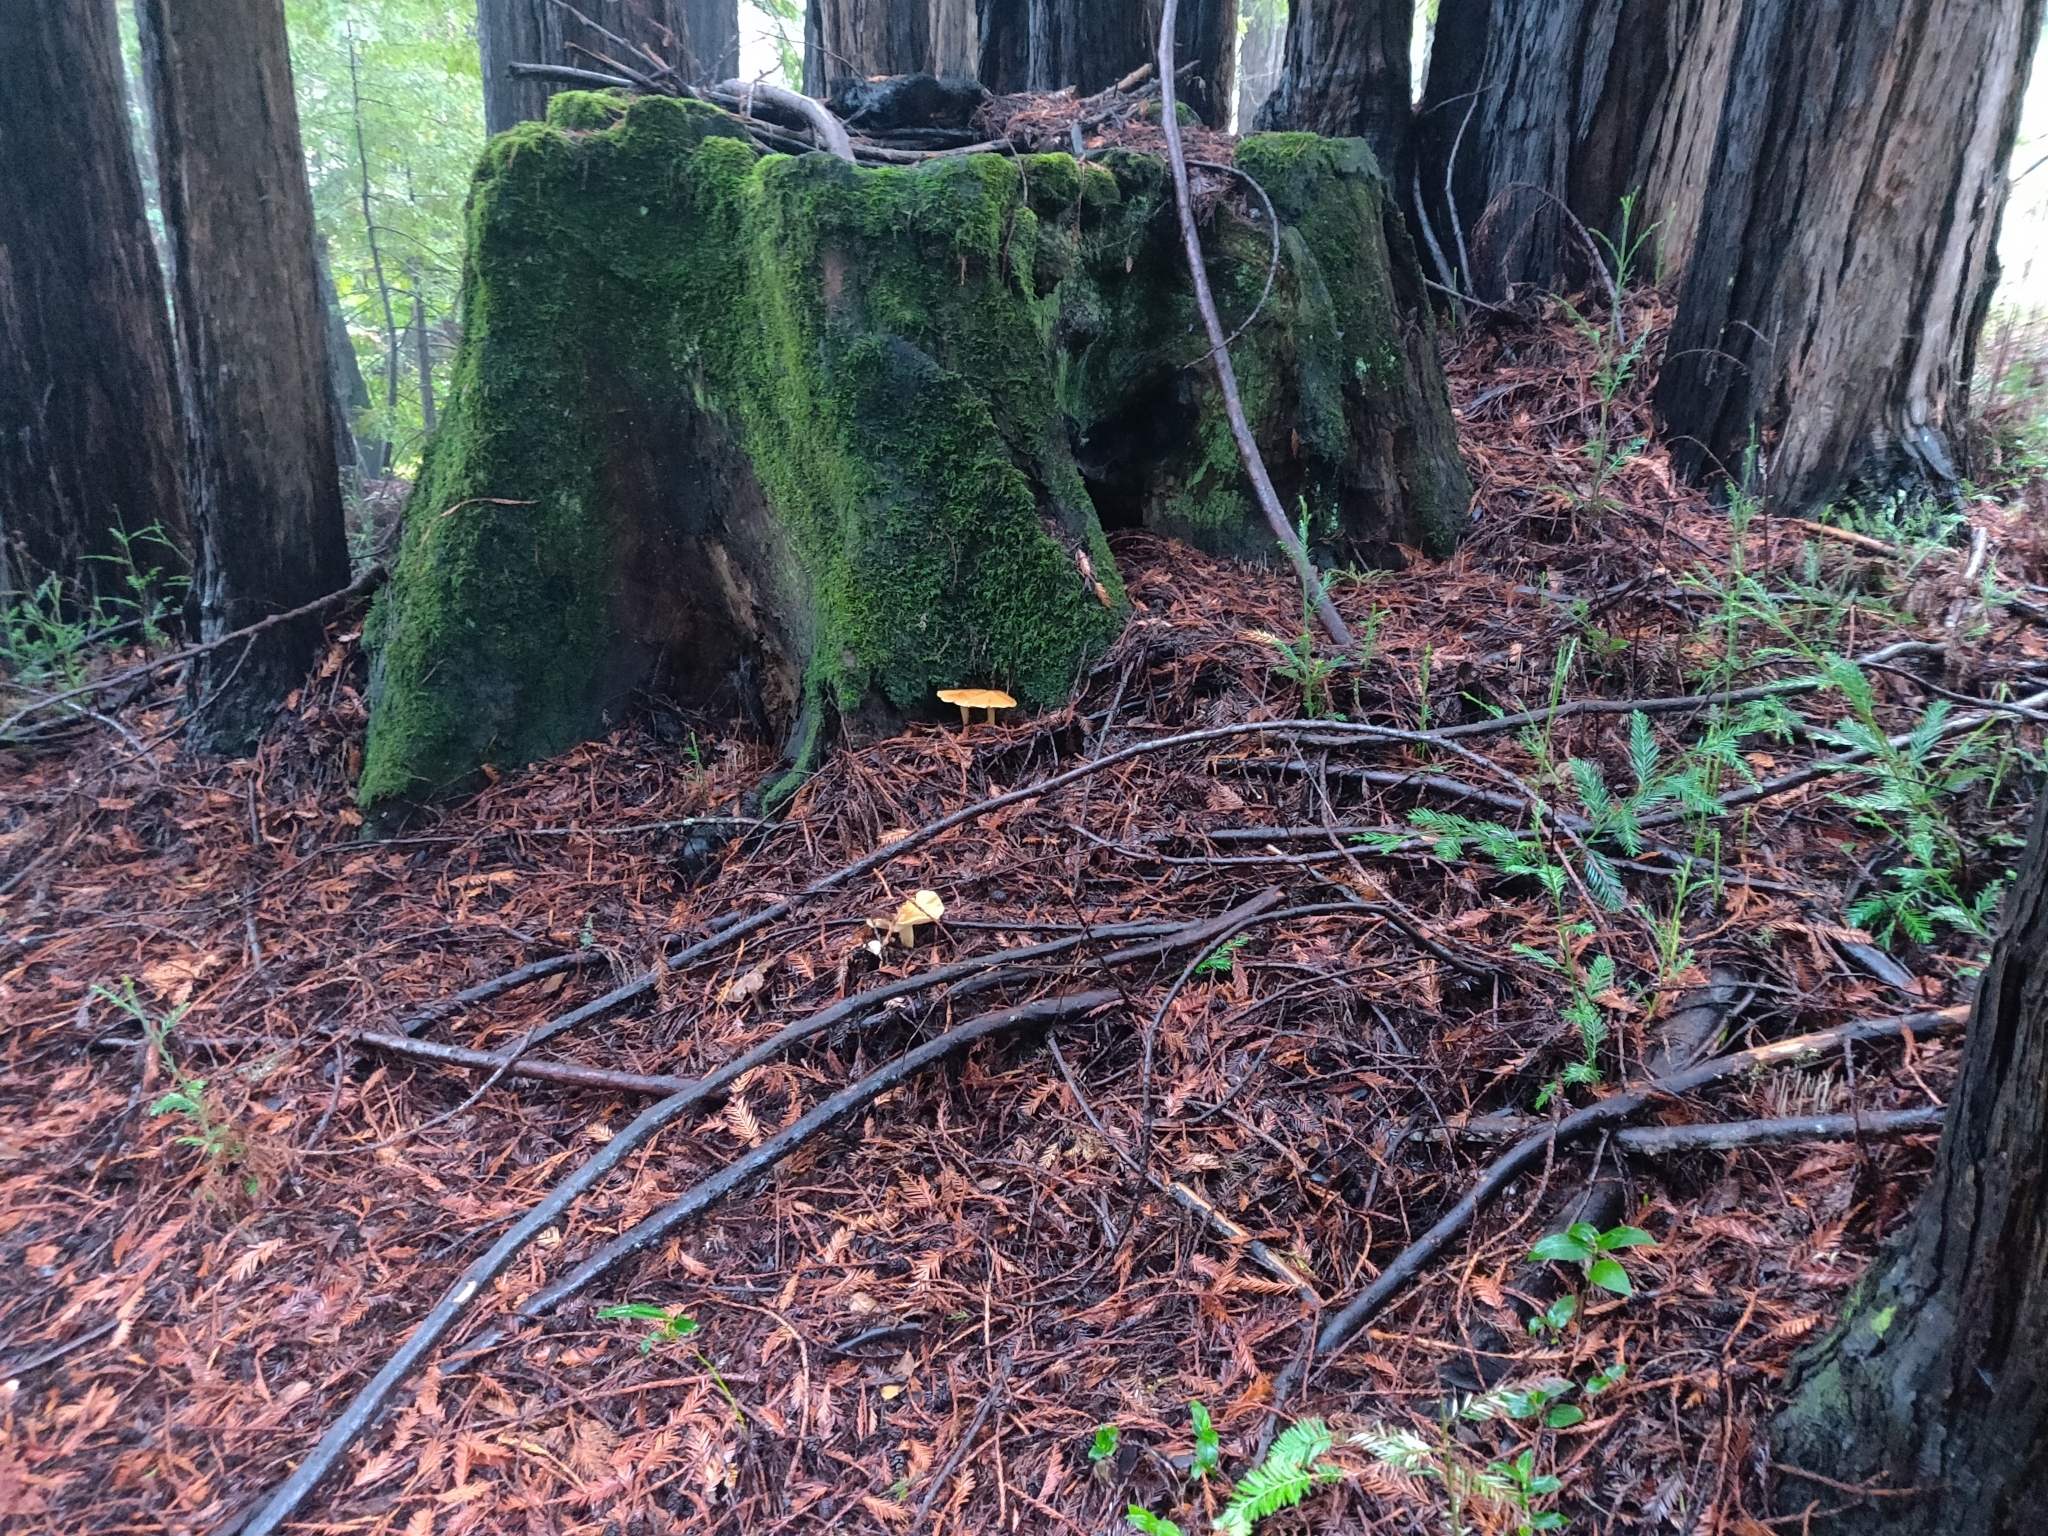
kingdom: Fungi
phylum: Basidiomycota
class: Agaricomycetes
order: Agaricales
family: Tricholomataceae
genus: Caulorhiza
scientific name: Caulorhiza umbonata
